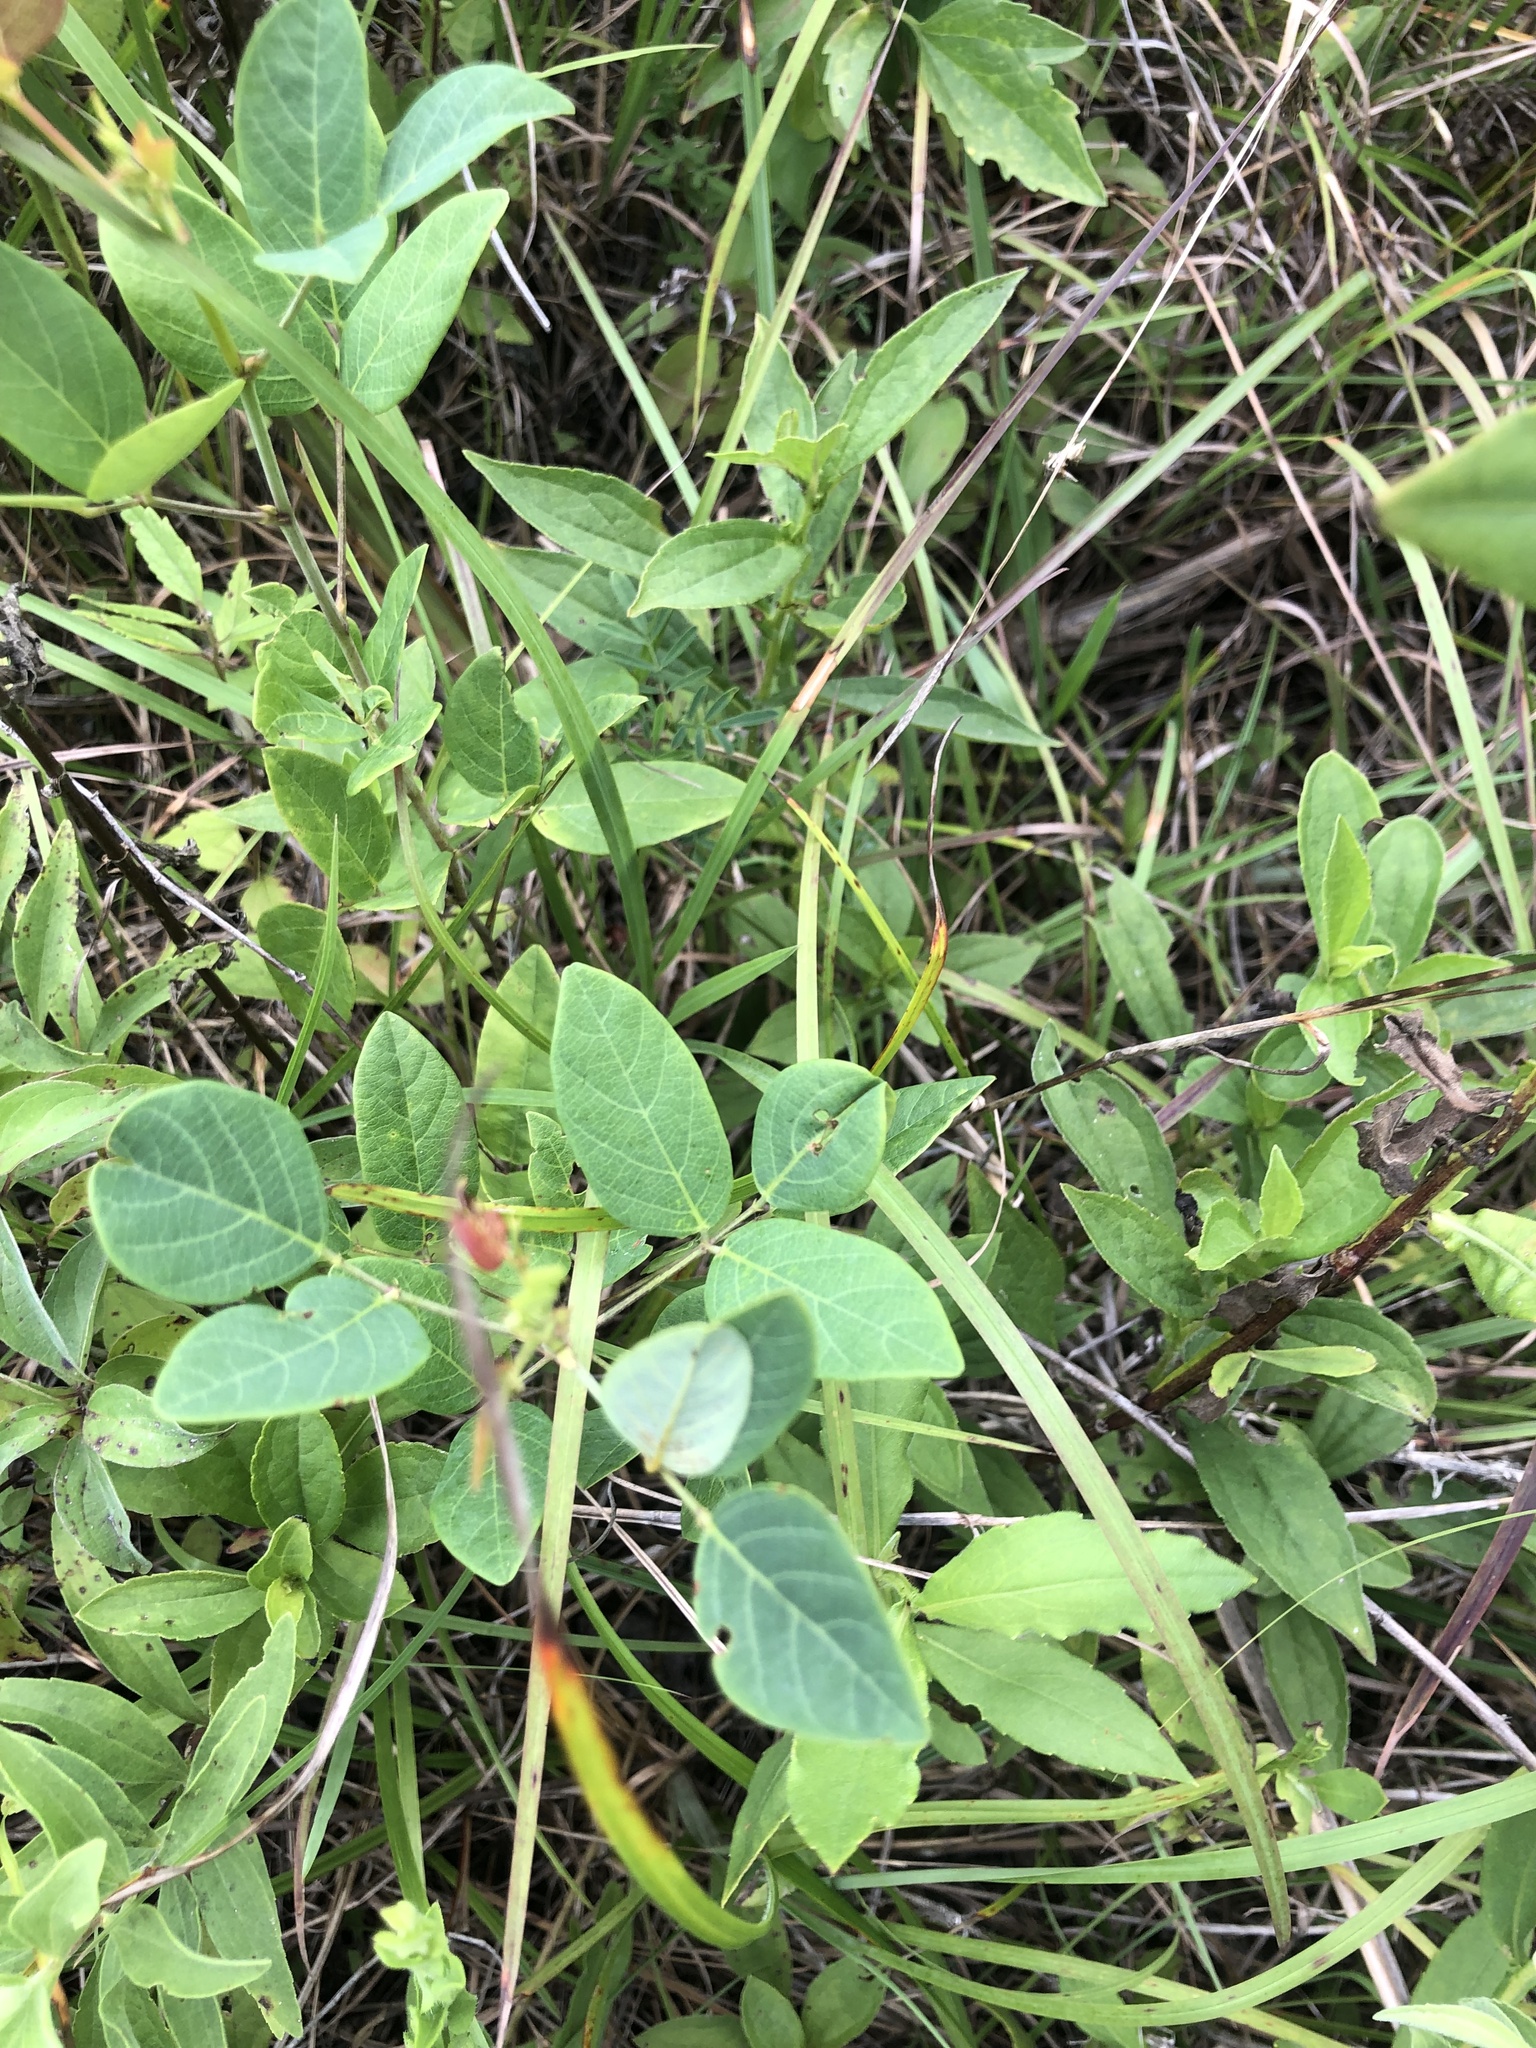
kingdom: Plantae
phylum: Tracheophyta
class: Magnoliopsida
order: Fabales
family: Fabaceae
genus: Desmodium
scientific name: Desmodium laevigatum
